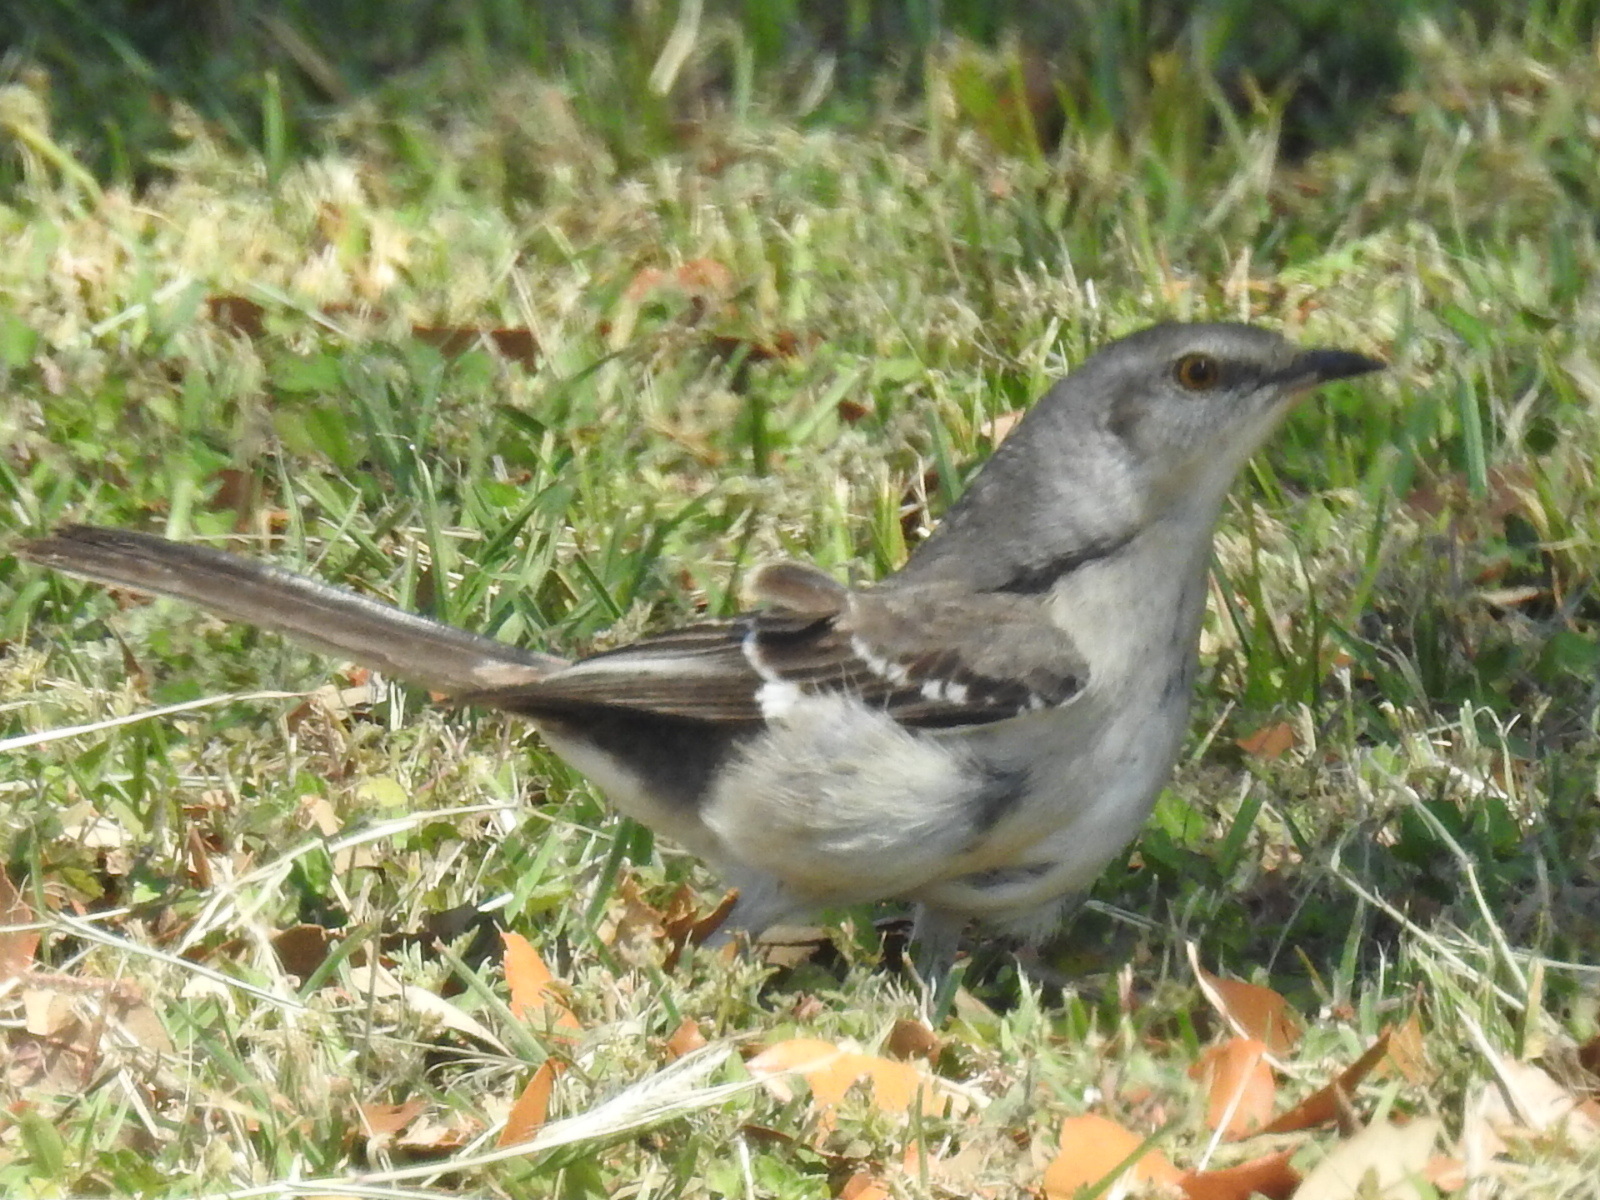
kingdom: Animalia
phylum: Chordata
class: Aves
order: Passeriformes
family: Mimidae
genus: Mimus
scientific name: Mimus polyglottos
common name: Northern mockingbird
